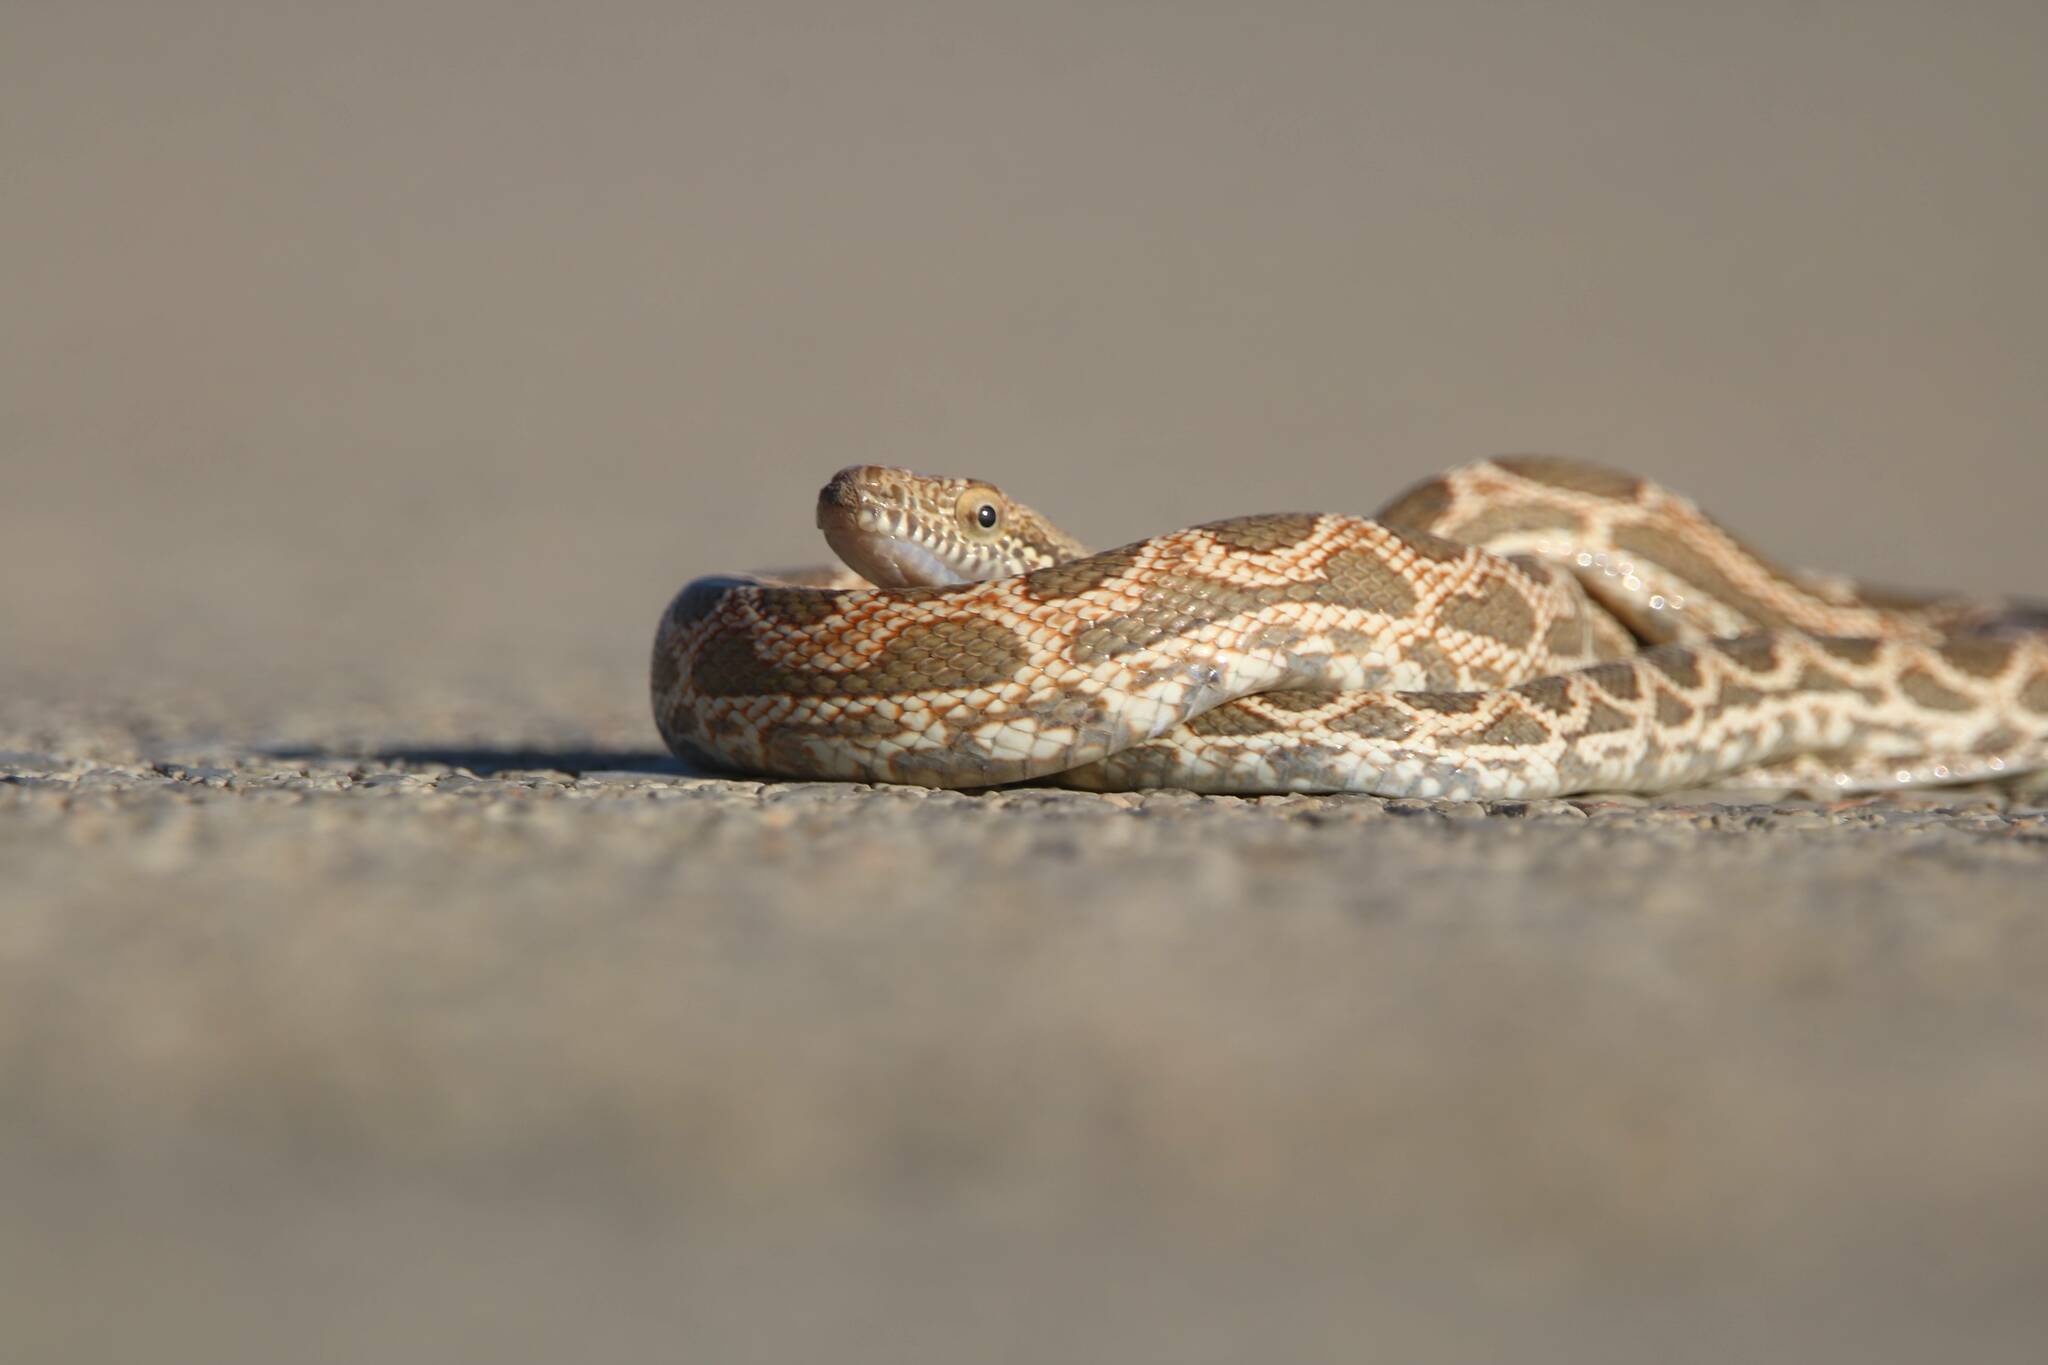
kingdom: Animalia
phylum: Chordata
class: Squamata
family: Colubridae
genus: Spalerosophis
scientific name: Spalerosophis dolichospilus
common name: Mograbin diadem snake
